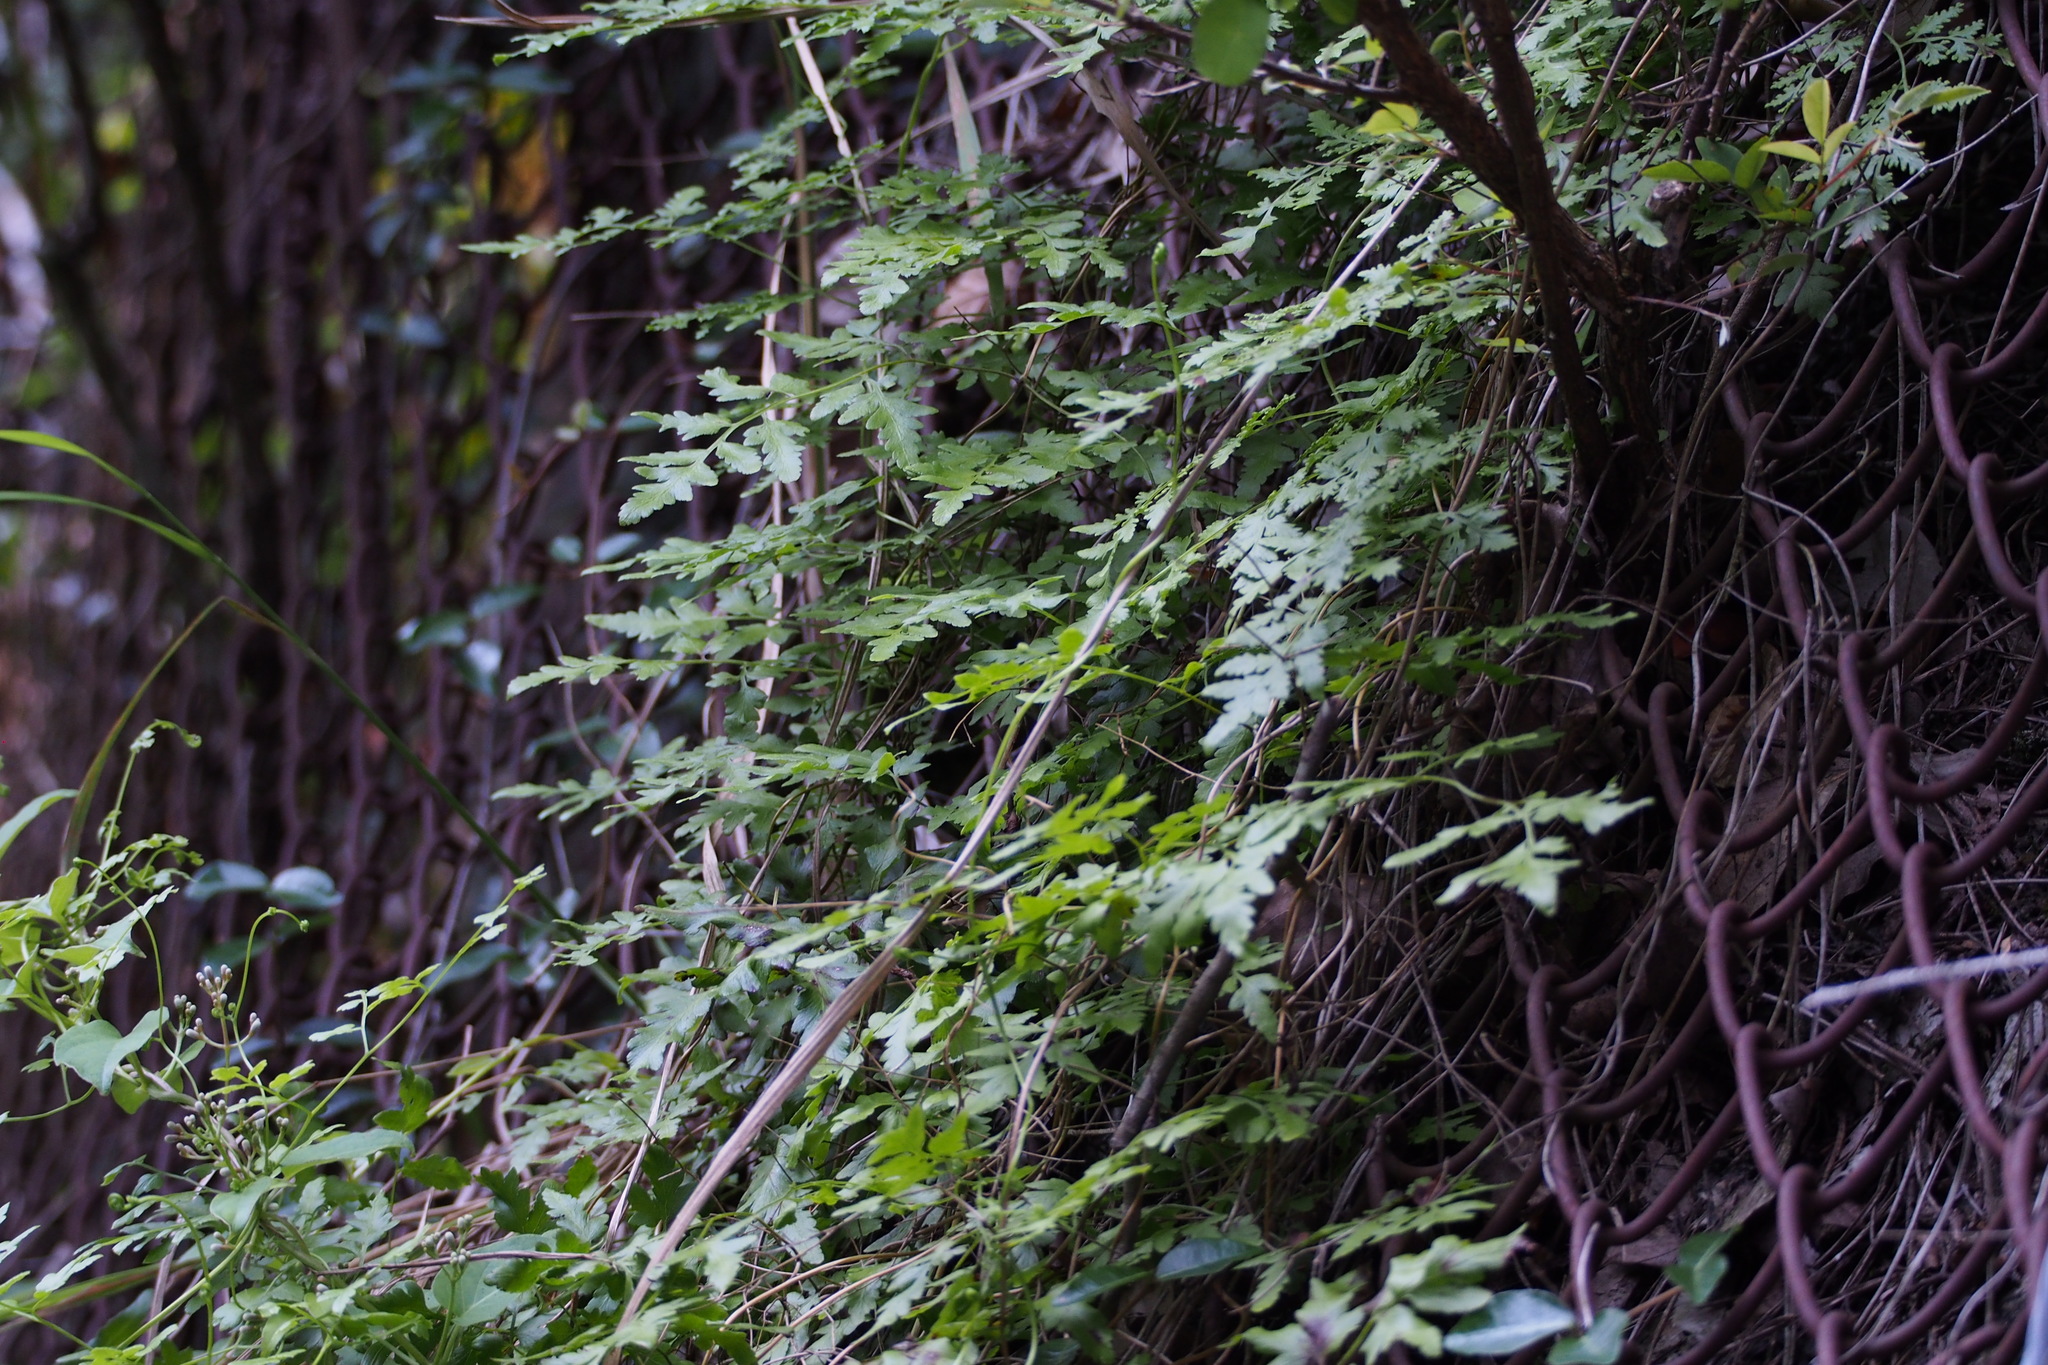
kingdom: Plantae
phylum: Tracheophyta
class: Polypodiopsida
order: Schizaeales
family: Lygodiaceae
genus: Lygodium
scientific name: Lygodium japonicum
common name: Japanese climbing fern
